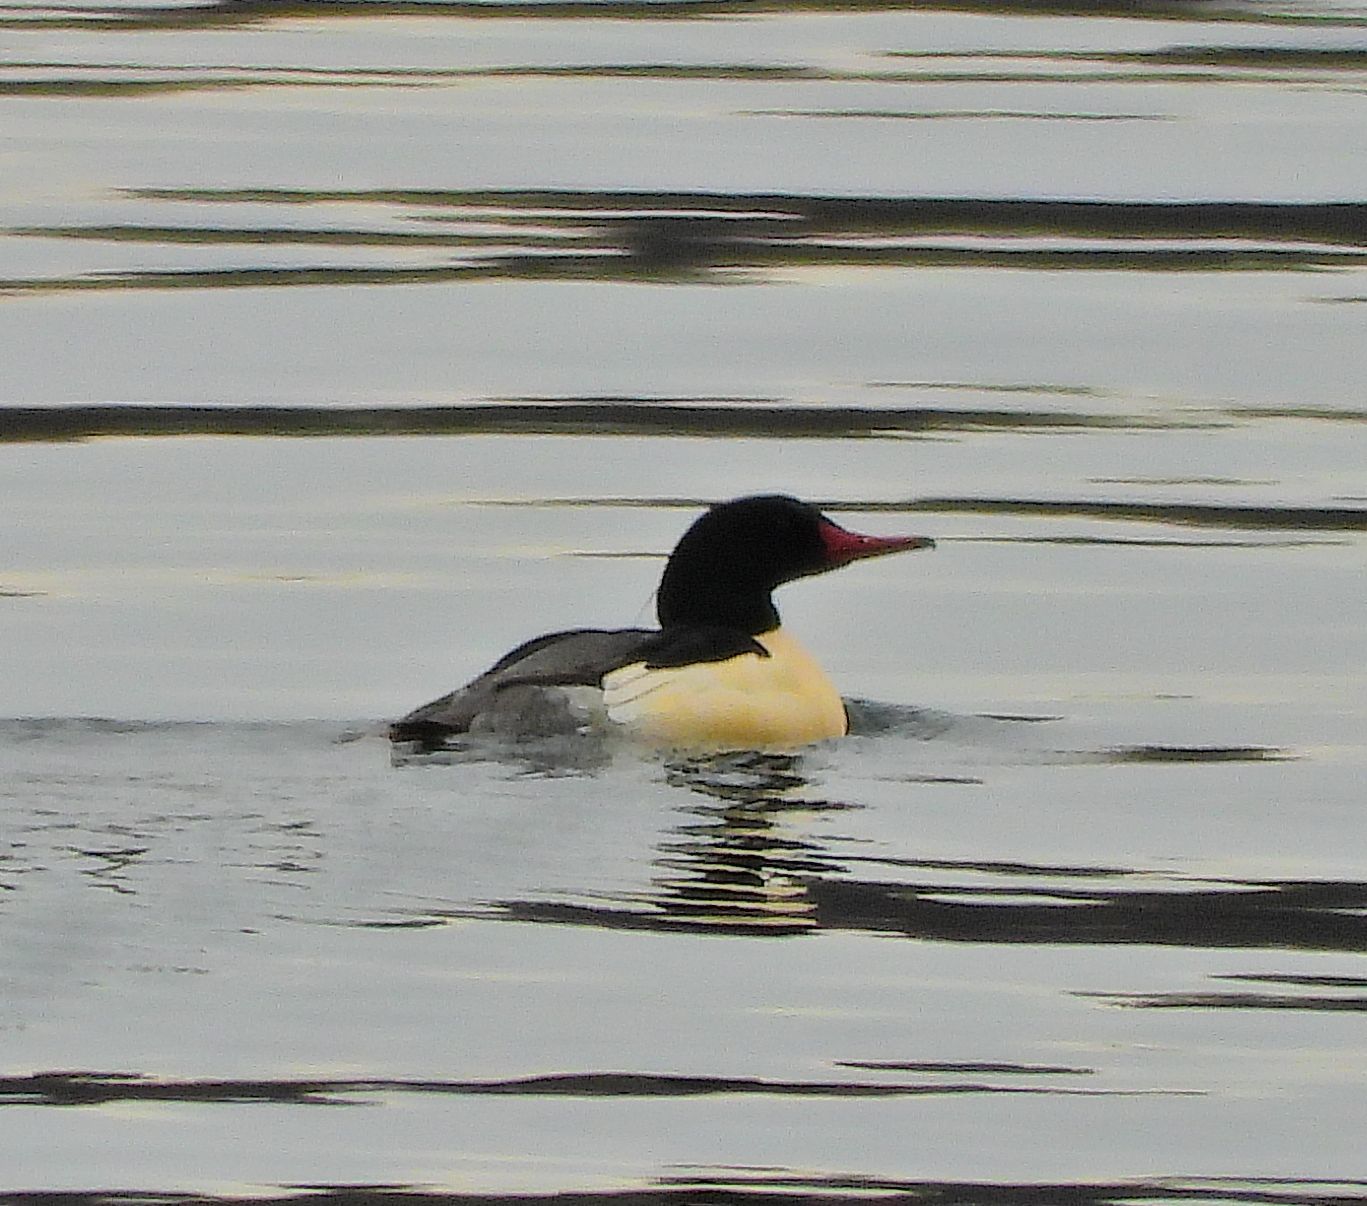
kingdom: Animalia
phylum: Chordata
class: Aves
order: Anseriformes
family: Anatidae
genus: Mergus
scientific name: Mergus merganser
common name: Common merganser
